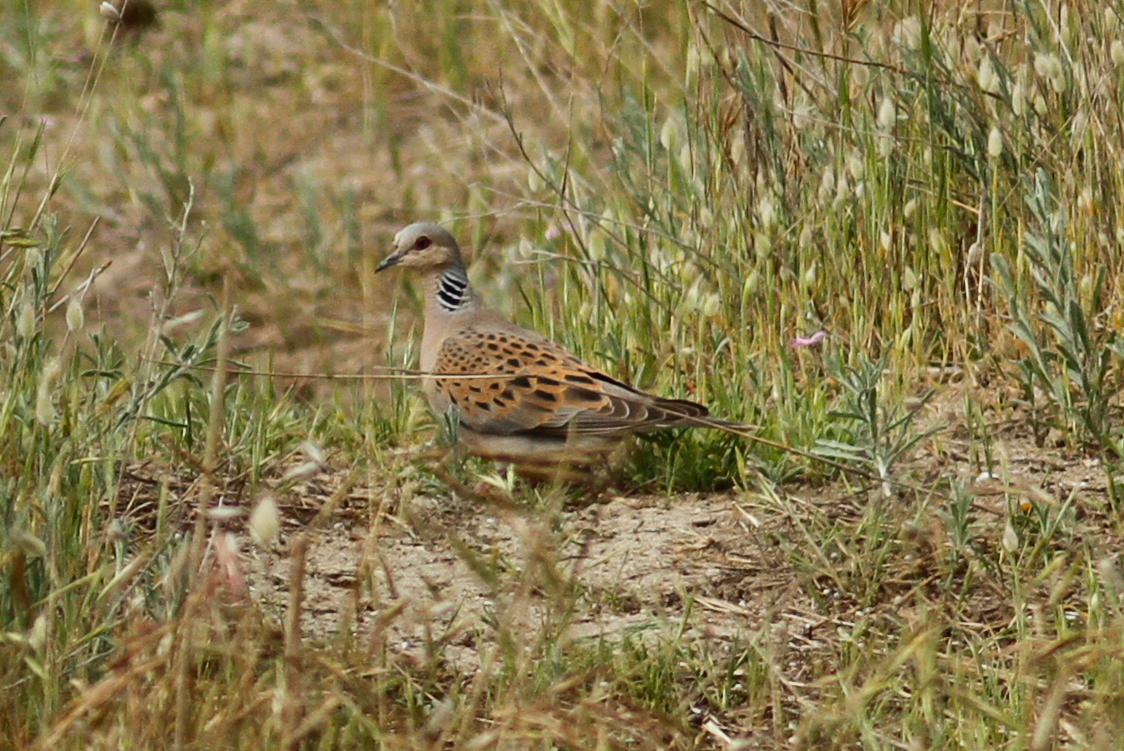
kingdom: Animalia
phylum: Chordata
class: Aves
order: Columbiformes
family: Columbidae
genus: Streptopelia
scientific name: Streptopelia turtur
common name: European turtle dove
